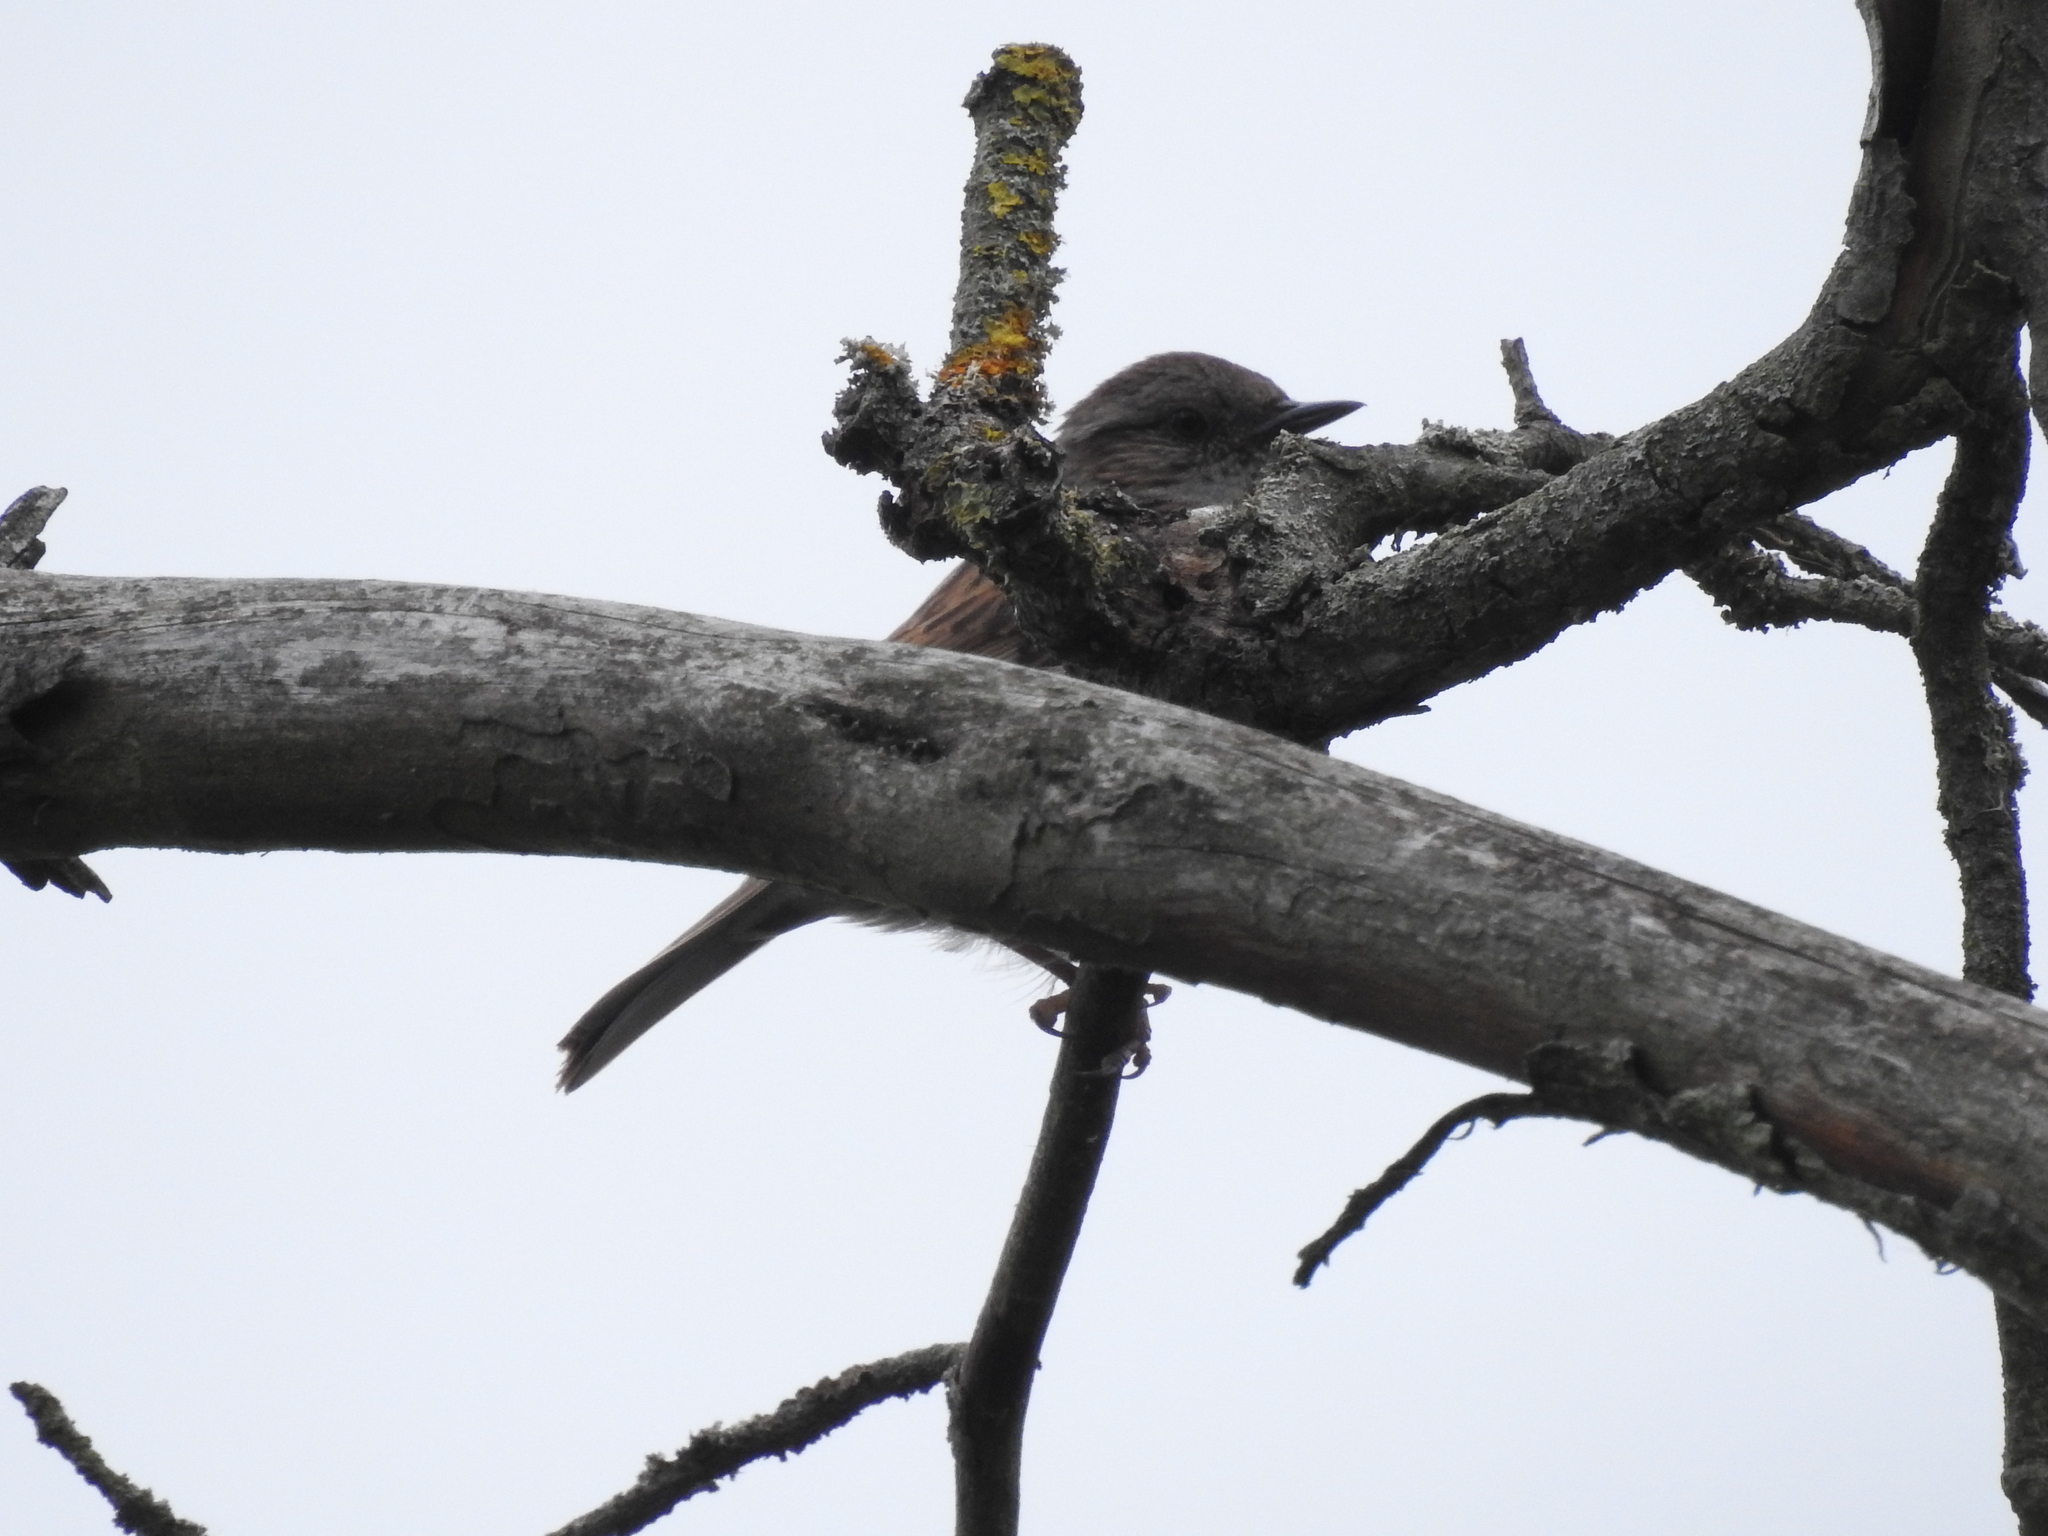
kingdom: Animalia
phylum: Chordata
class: Aves
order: Passeriformes
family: Prunellidae
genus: Prunella
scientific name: Prunella modularis
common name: Dunnock
